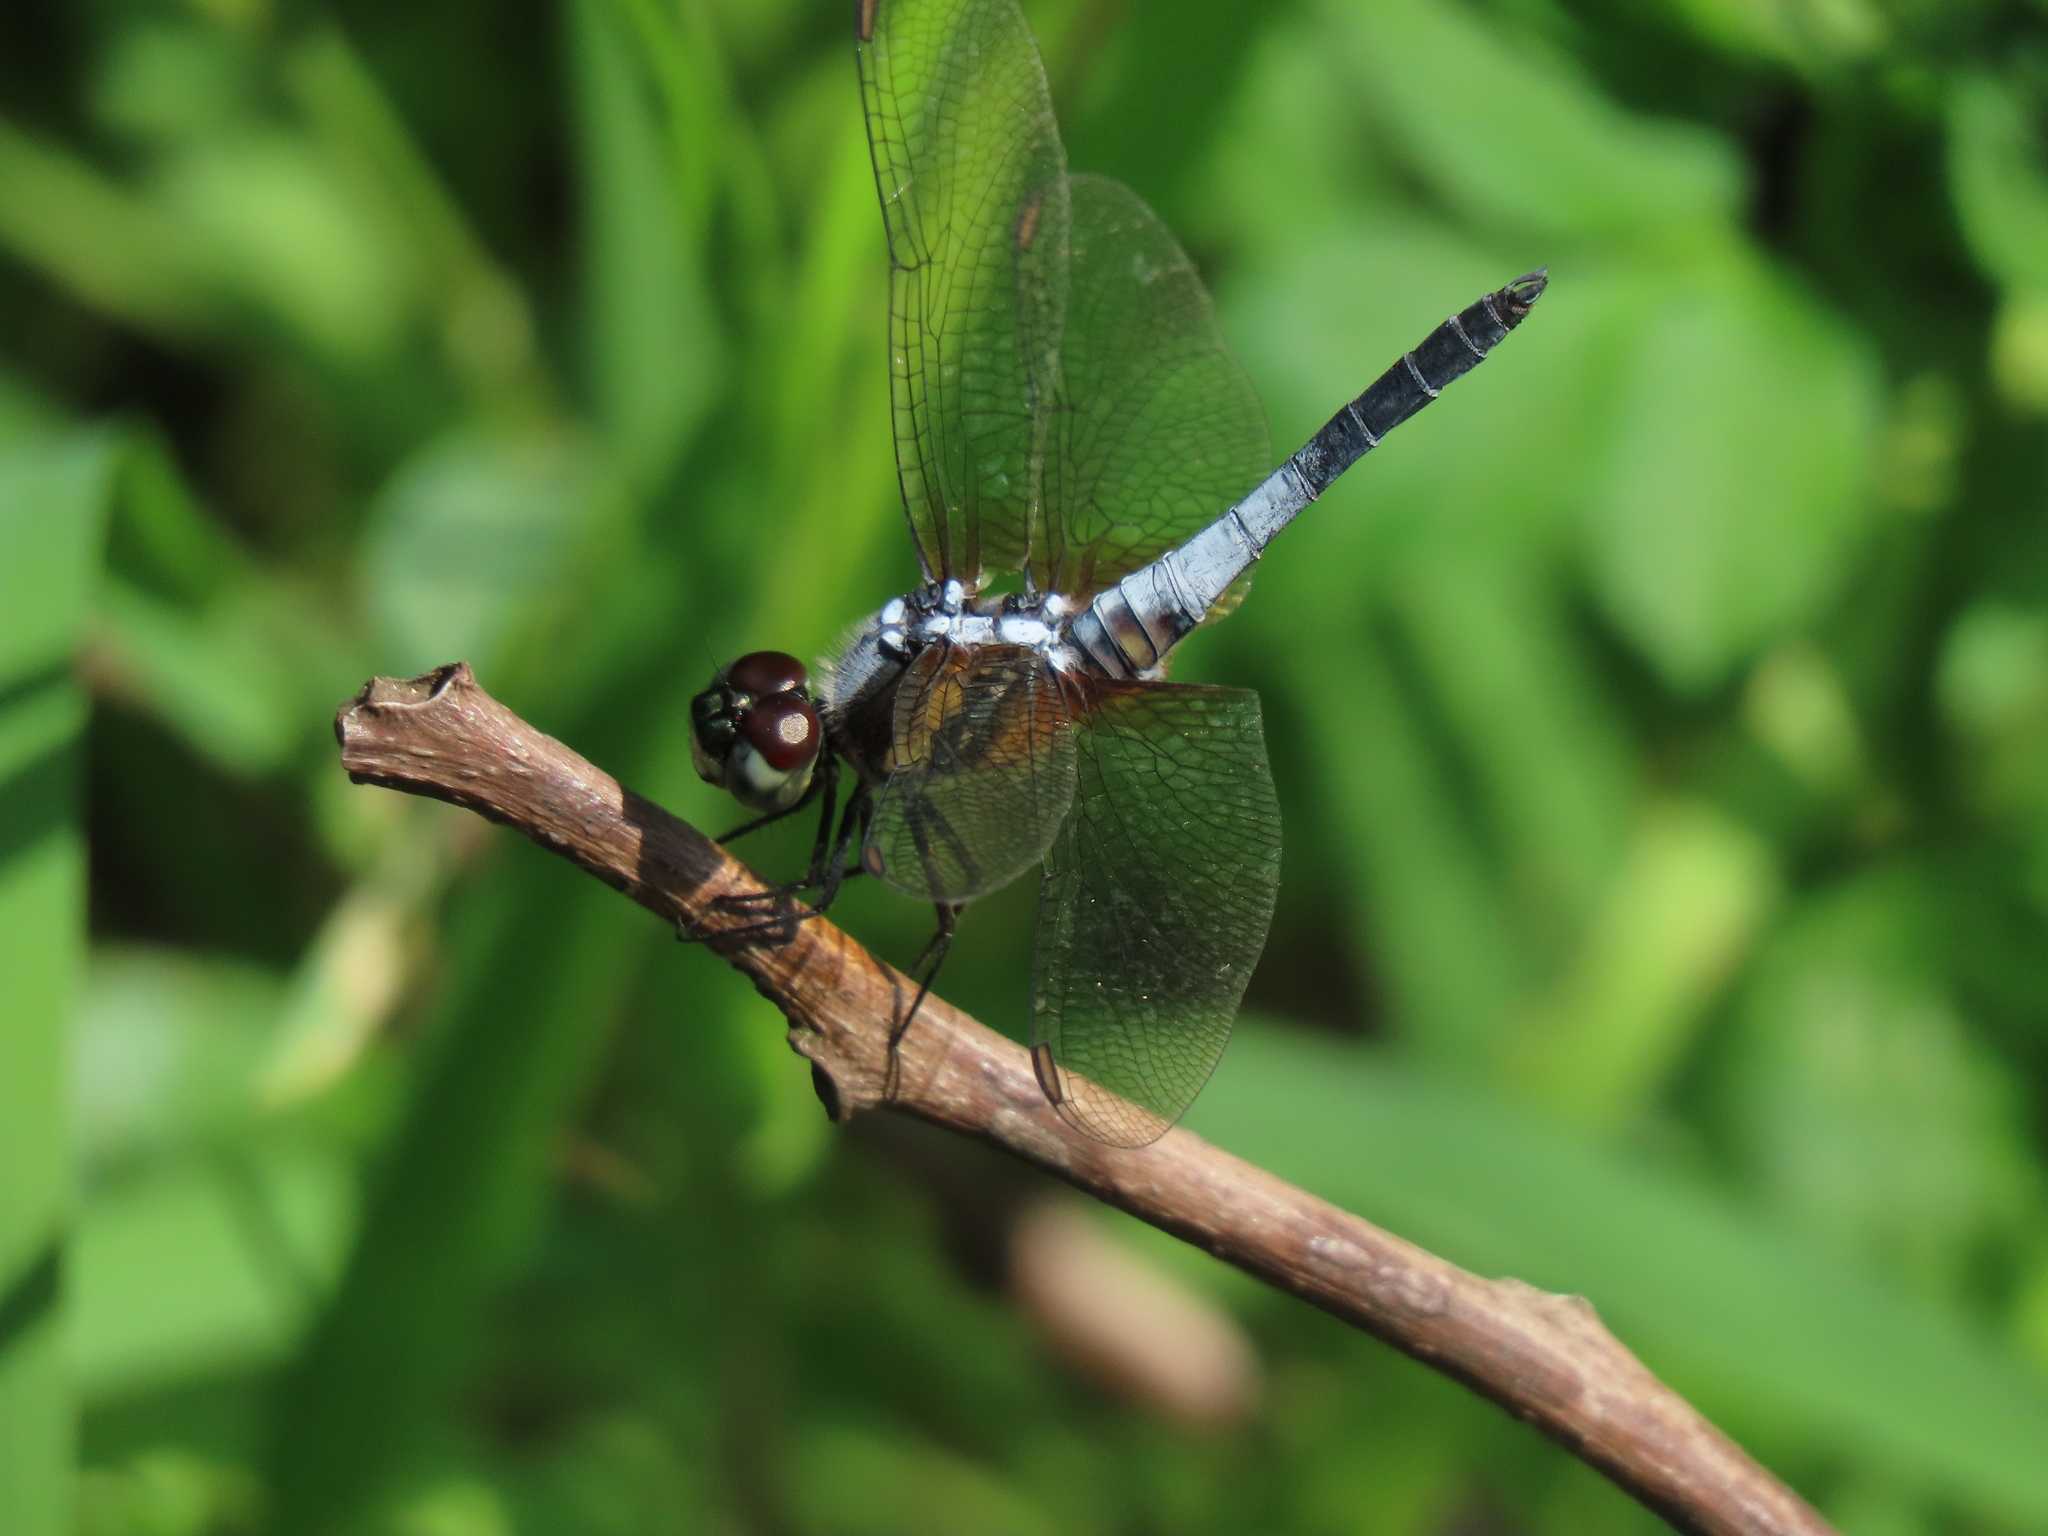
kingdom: Animalia
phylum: Arthropoda
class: Insecta
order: Odonata
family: Libellulidae
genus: Brachydiplax
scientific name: Brachydiplax chalybea
